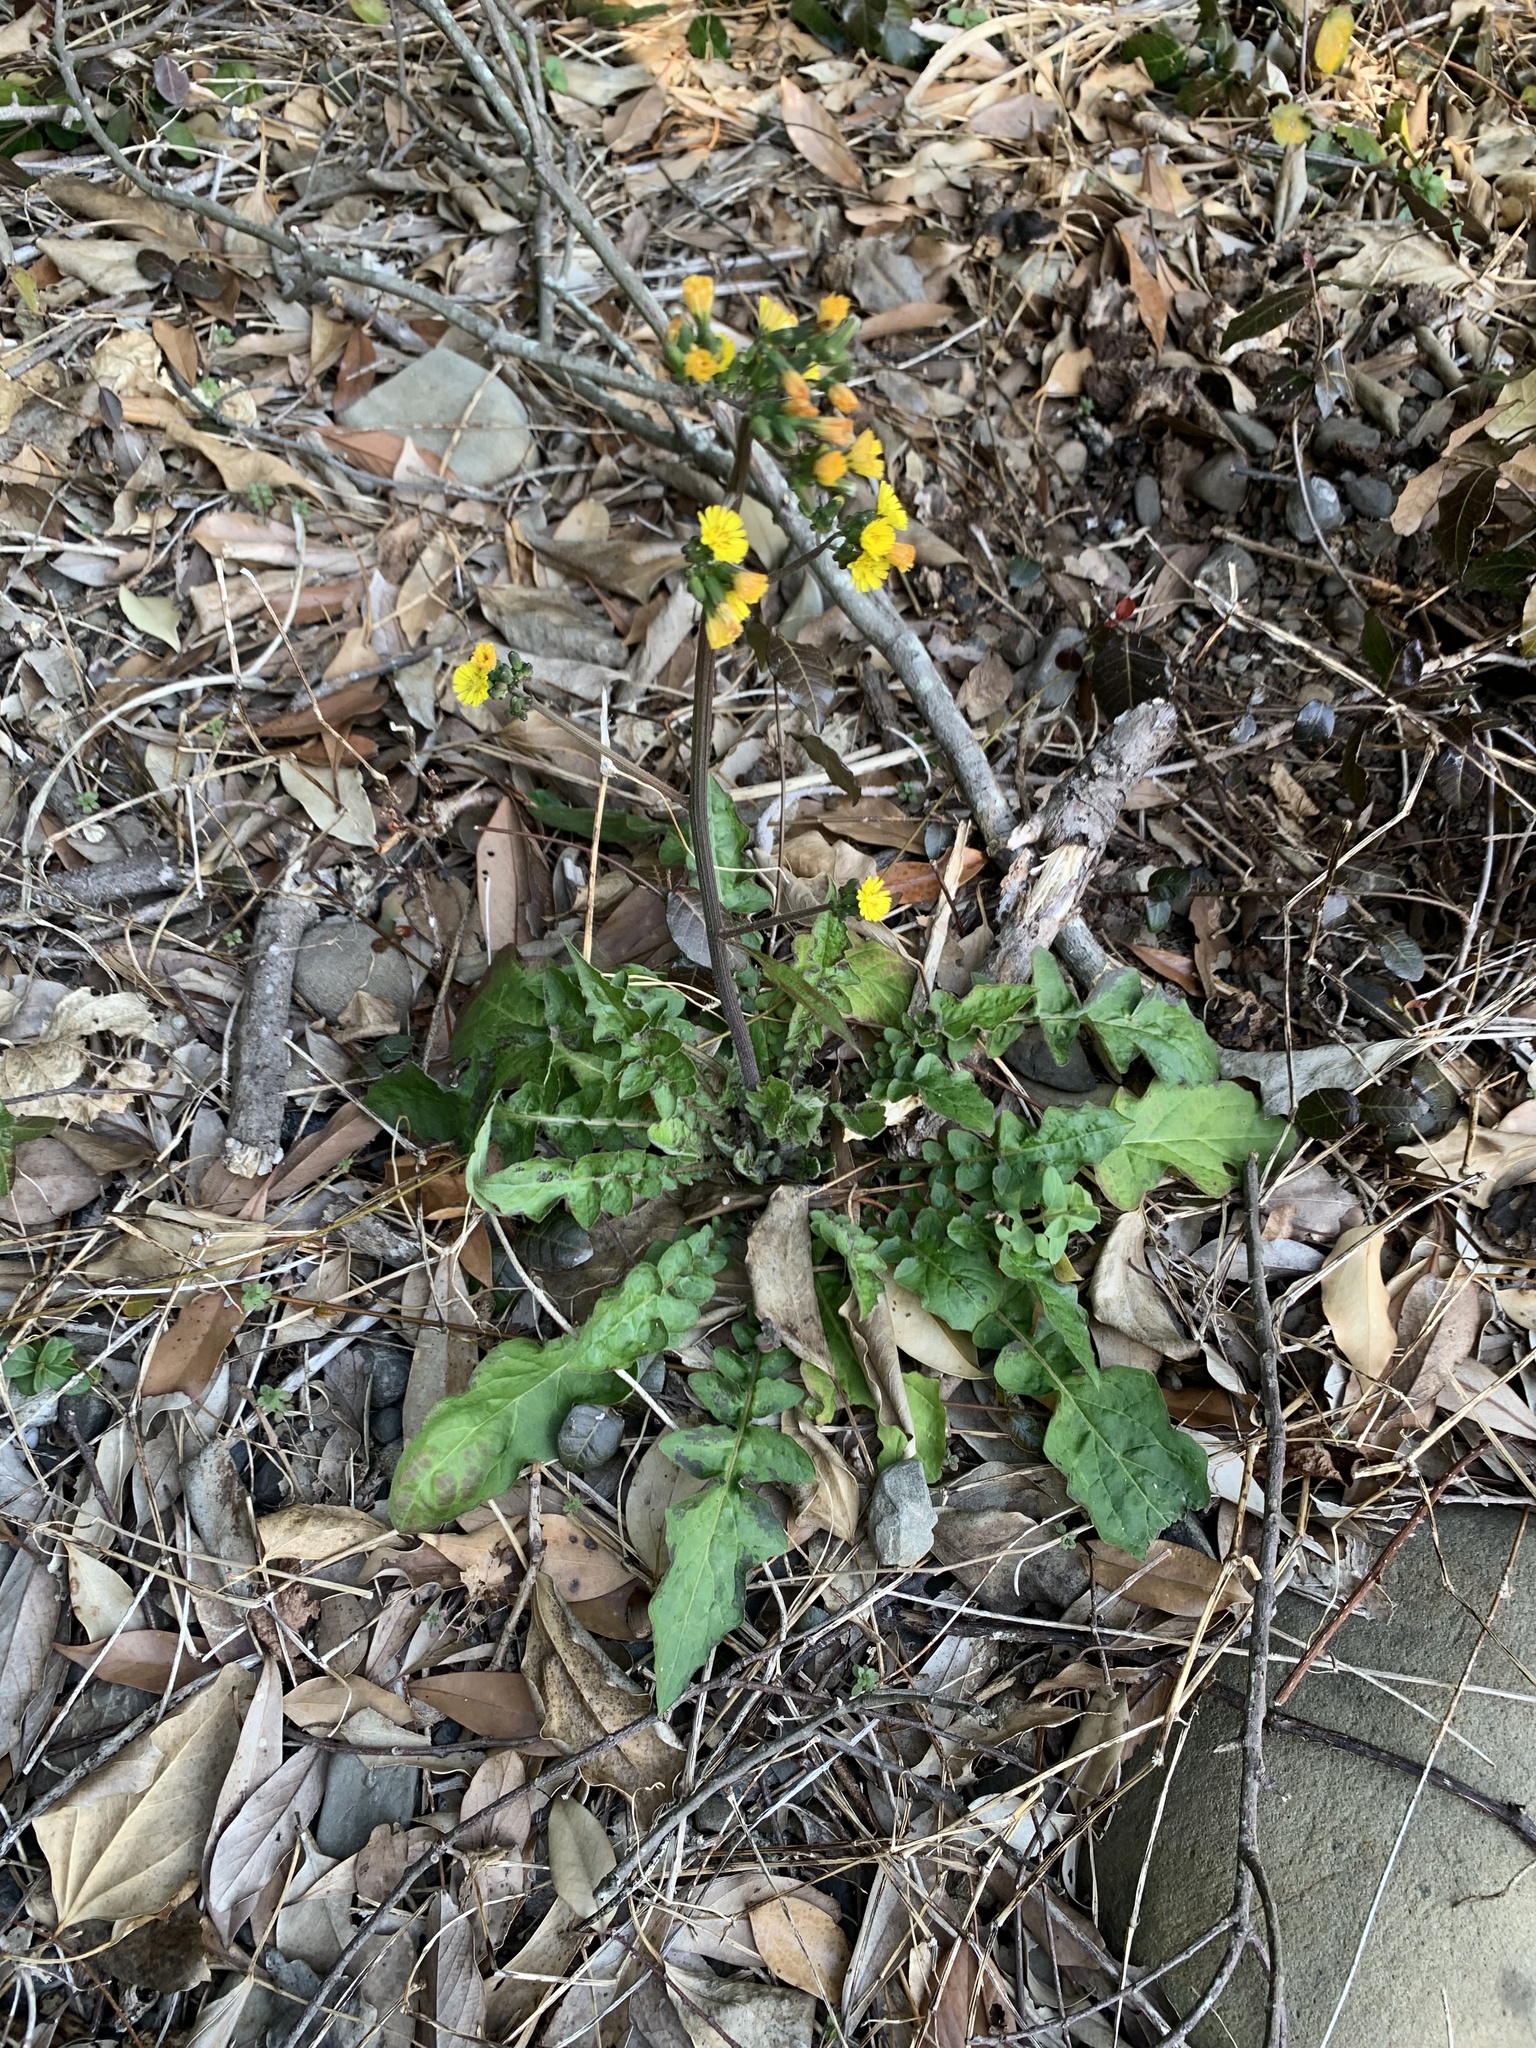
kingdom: Plantae
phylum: Tracheophyta
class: Magnoliopsida
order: Asterales
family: Asteraceae
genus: Youngia
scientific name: Youngia japonica
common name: Oriental false hawksbeard
